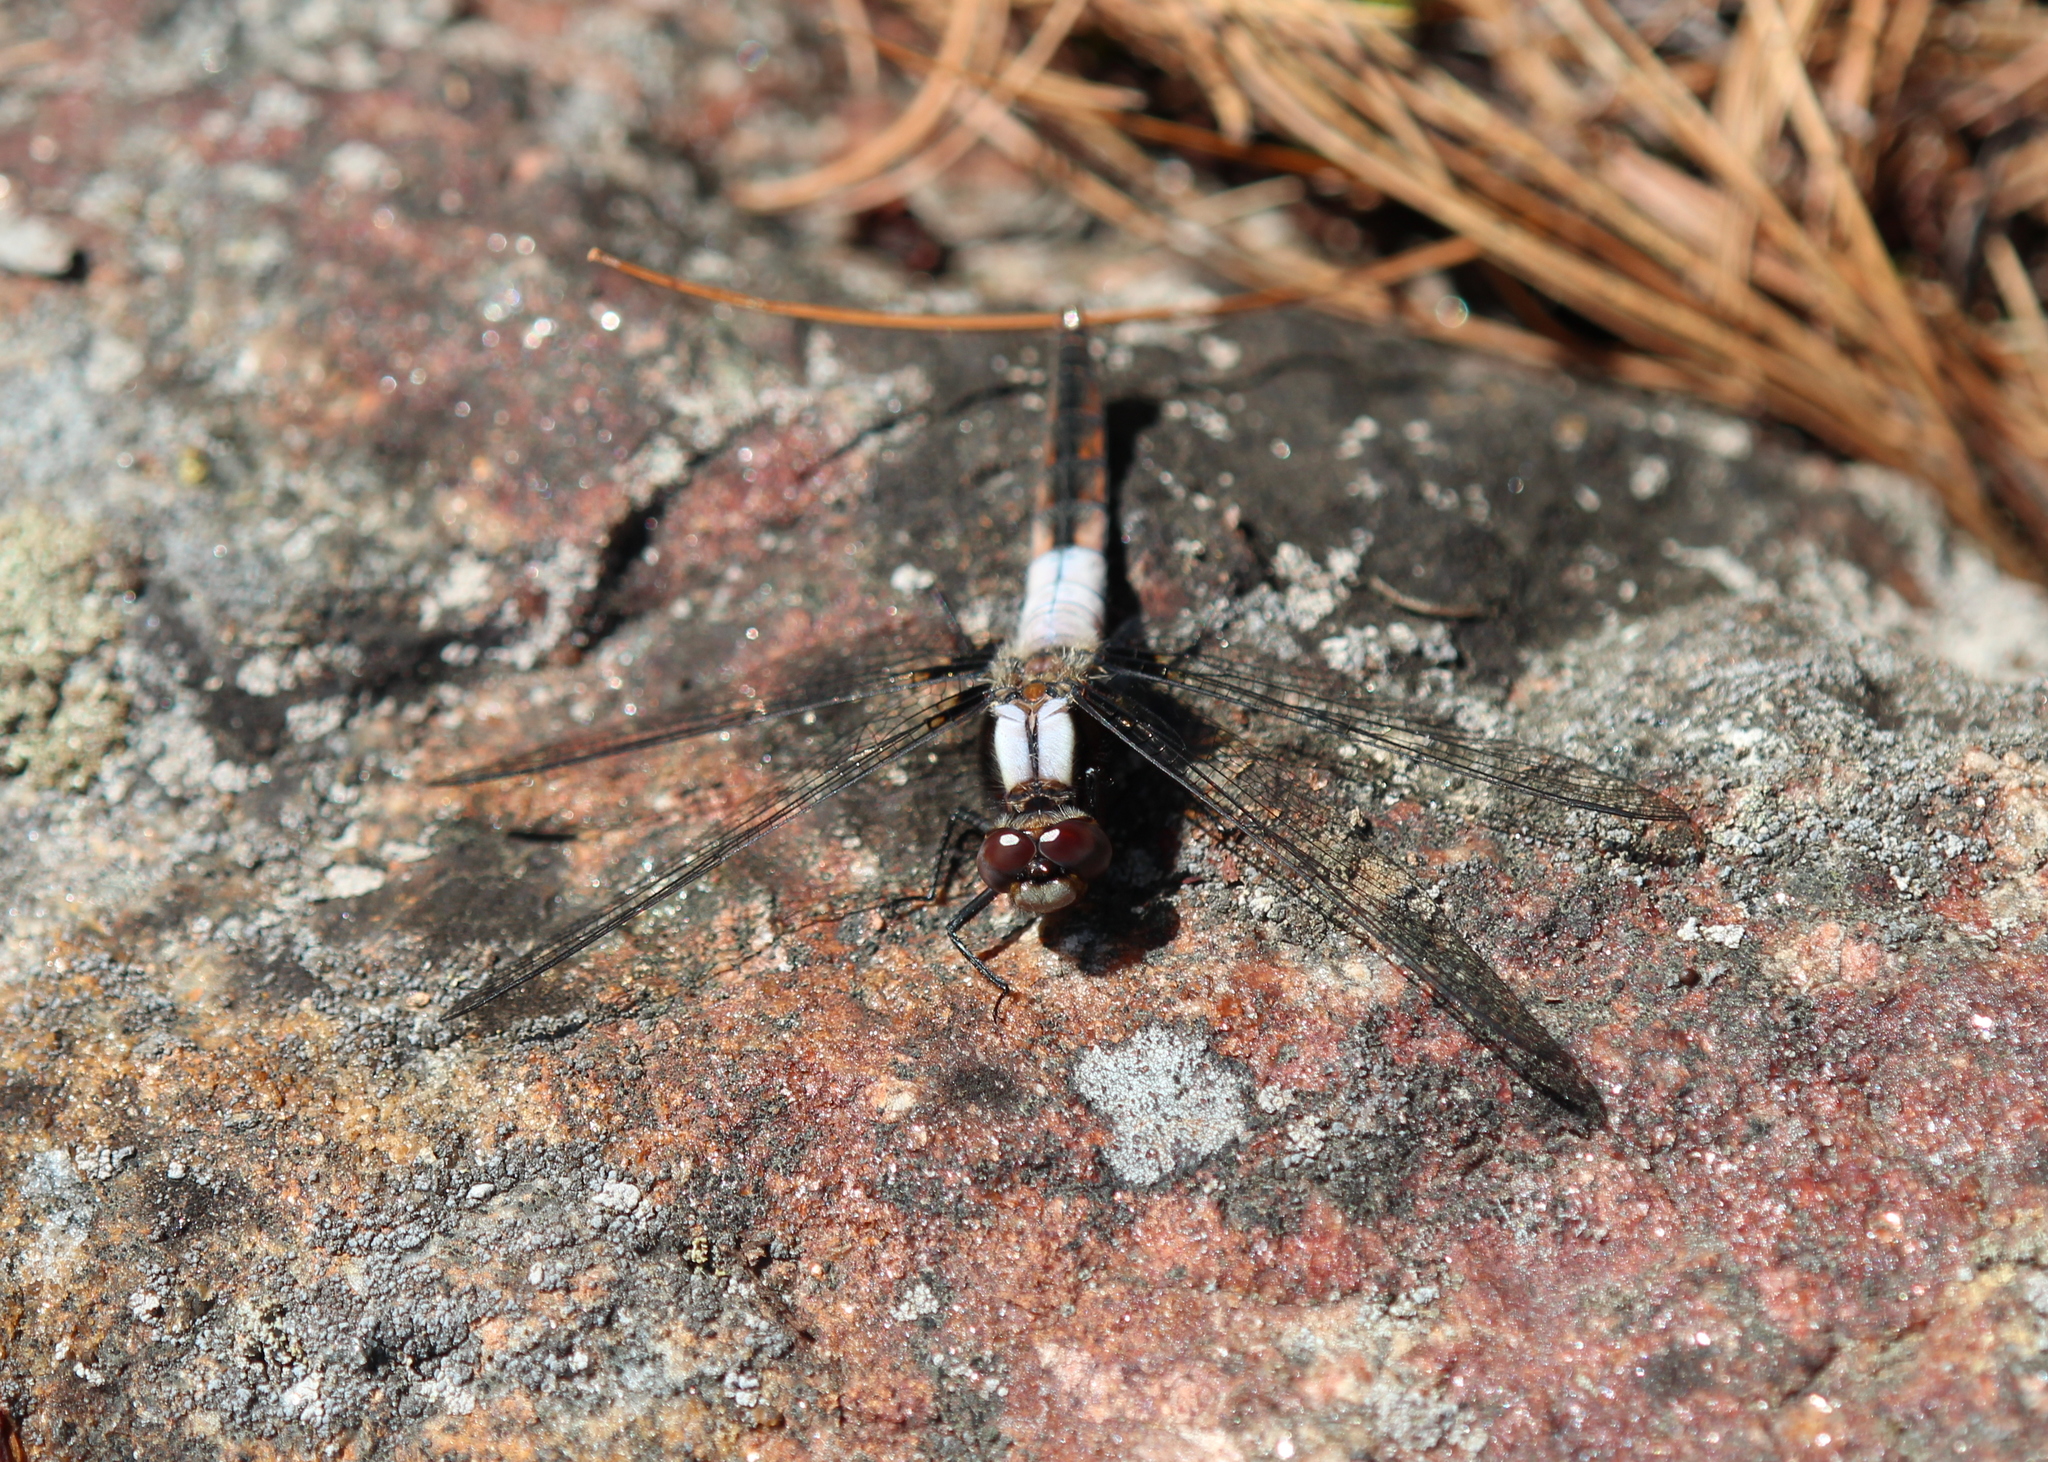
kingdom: Animalia
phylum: Arthropoda
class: Insecta
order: Odonata
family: Libellulidae
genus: Ladona
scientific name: Ladona julia
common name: Chalk-fronted corporal
